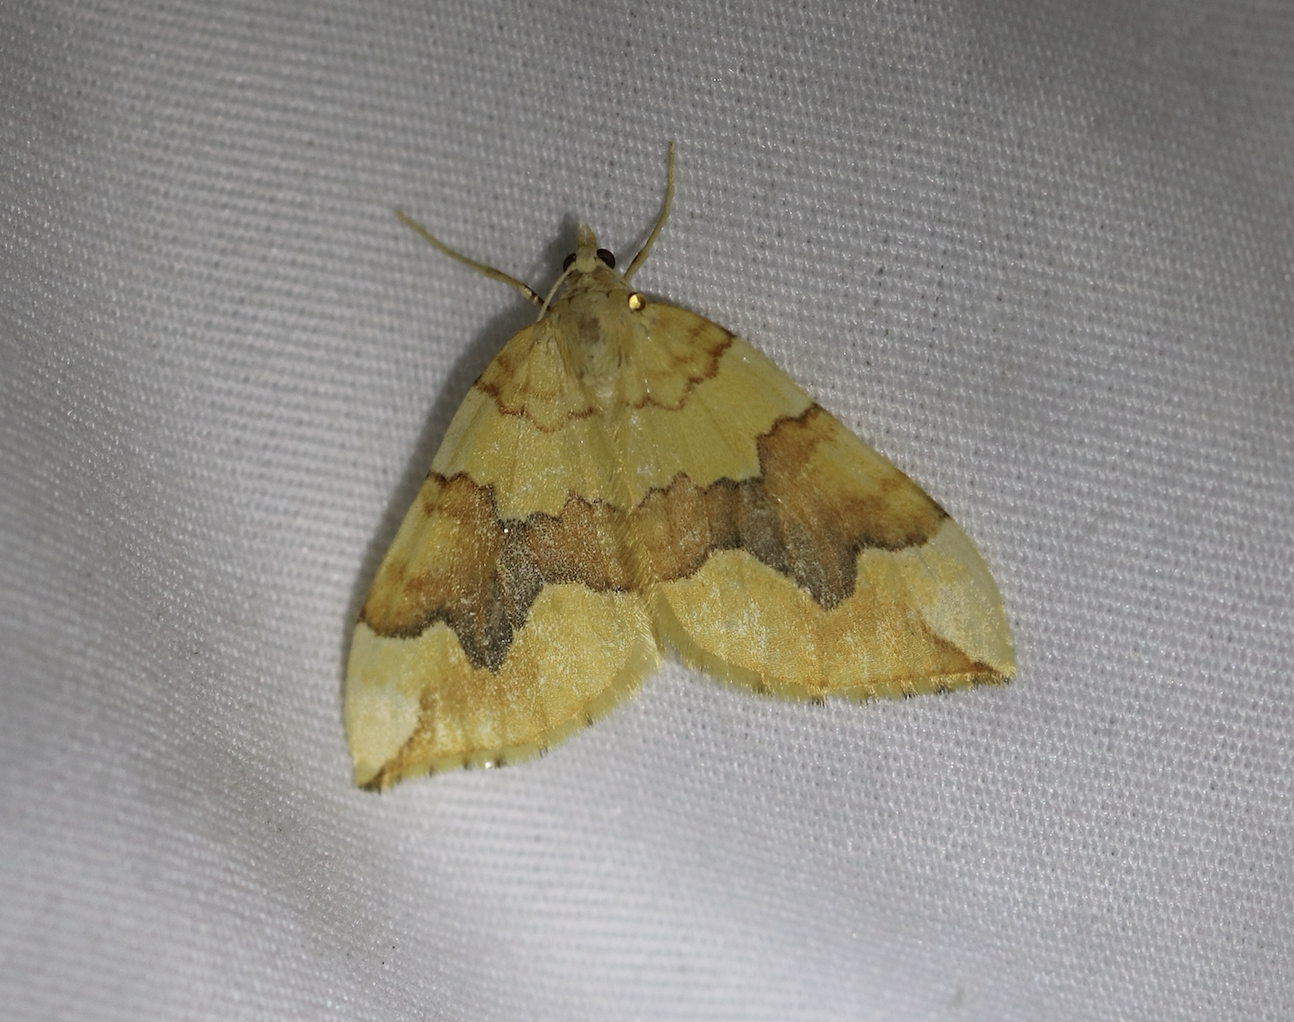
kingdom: Animalia
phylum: Arthropoda
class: Insecta
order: Lepidoptera
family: Geometridae
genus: Cidaria
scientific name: Cidaria fulvata
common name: Barred yellow
